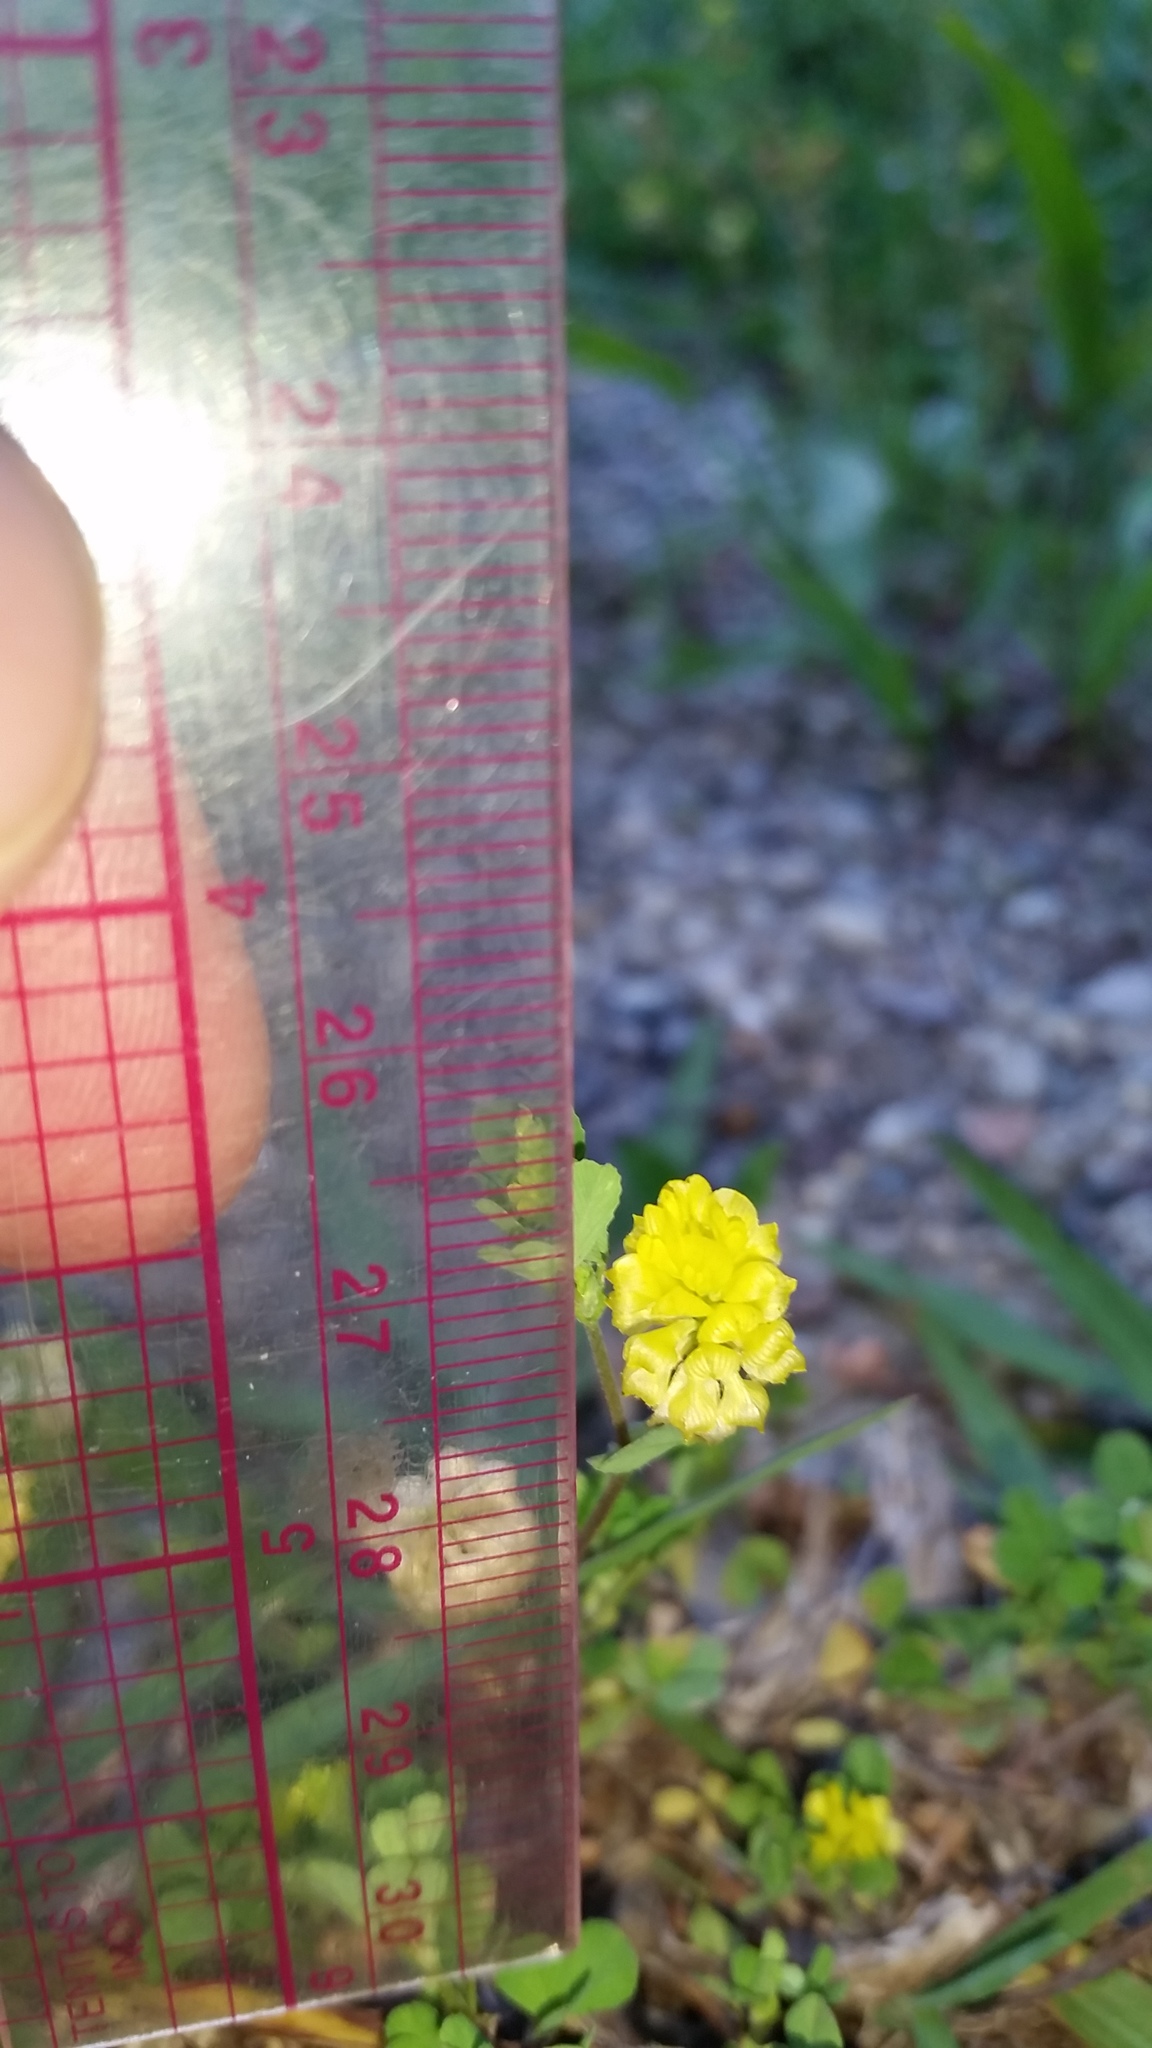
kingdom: Plantae
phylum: Tracheophyta
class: Magnoliopsida
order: Fabales
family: Fabaceae
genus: Trifolium
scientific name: Trifolium campestre
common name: Field clover
